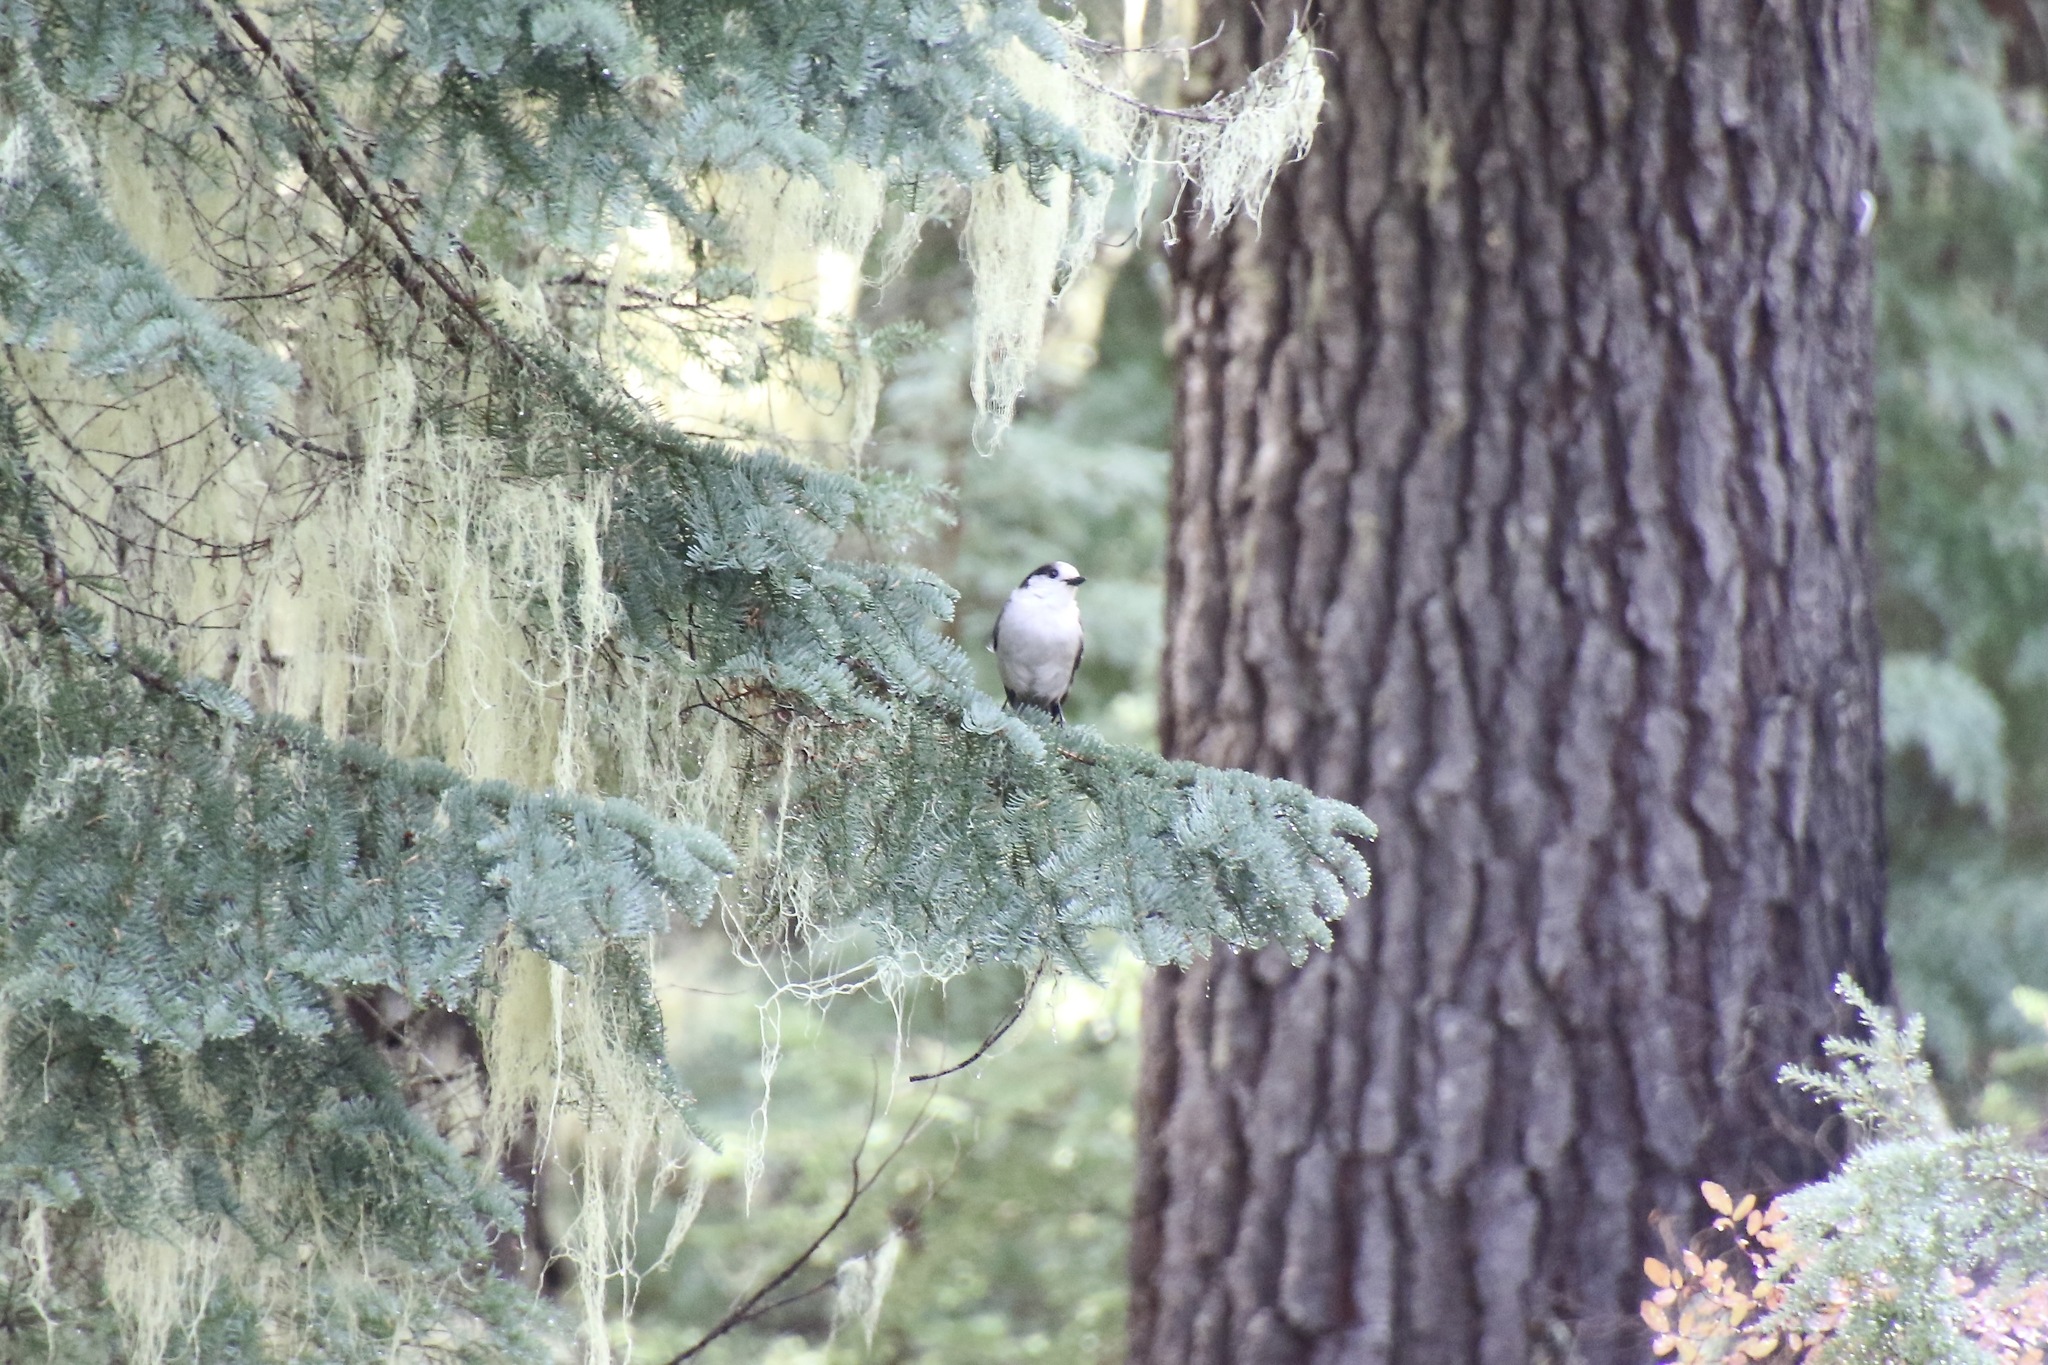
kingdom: Animalia
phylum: Chordata
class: Aves
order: Passeriformes
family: Corvidae
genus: Perisoreus
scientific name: Perisoreus canadensis
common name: Gray jay
